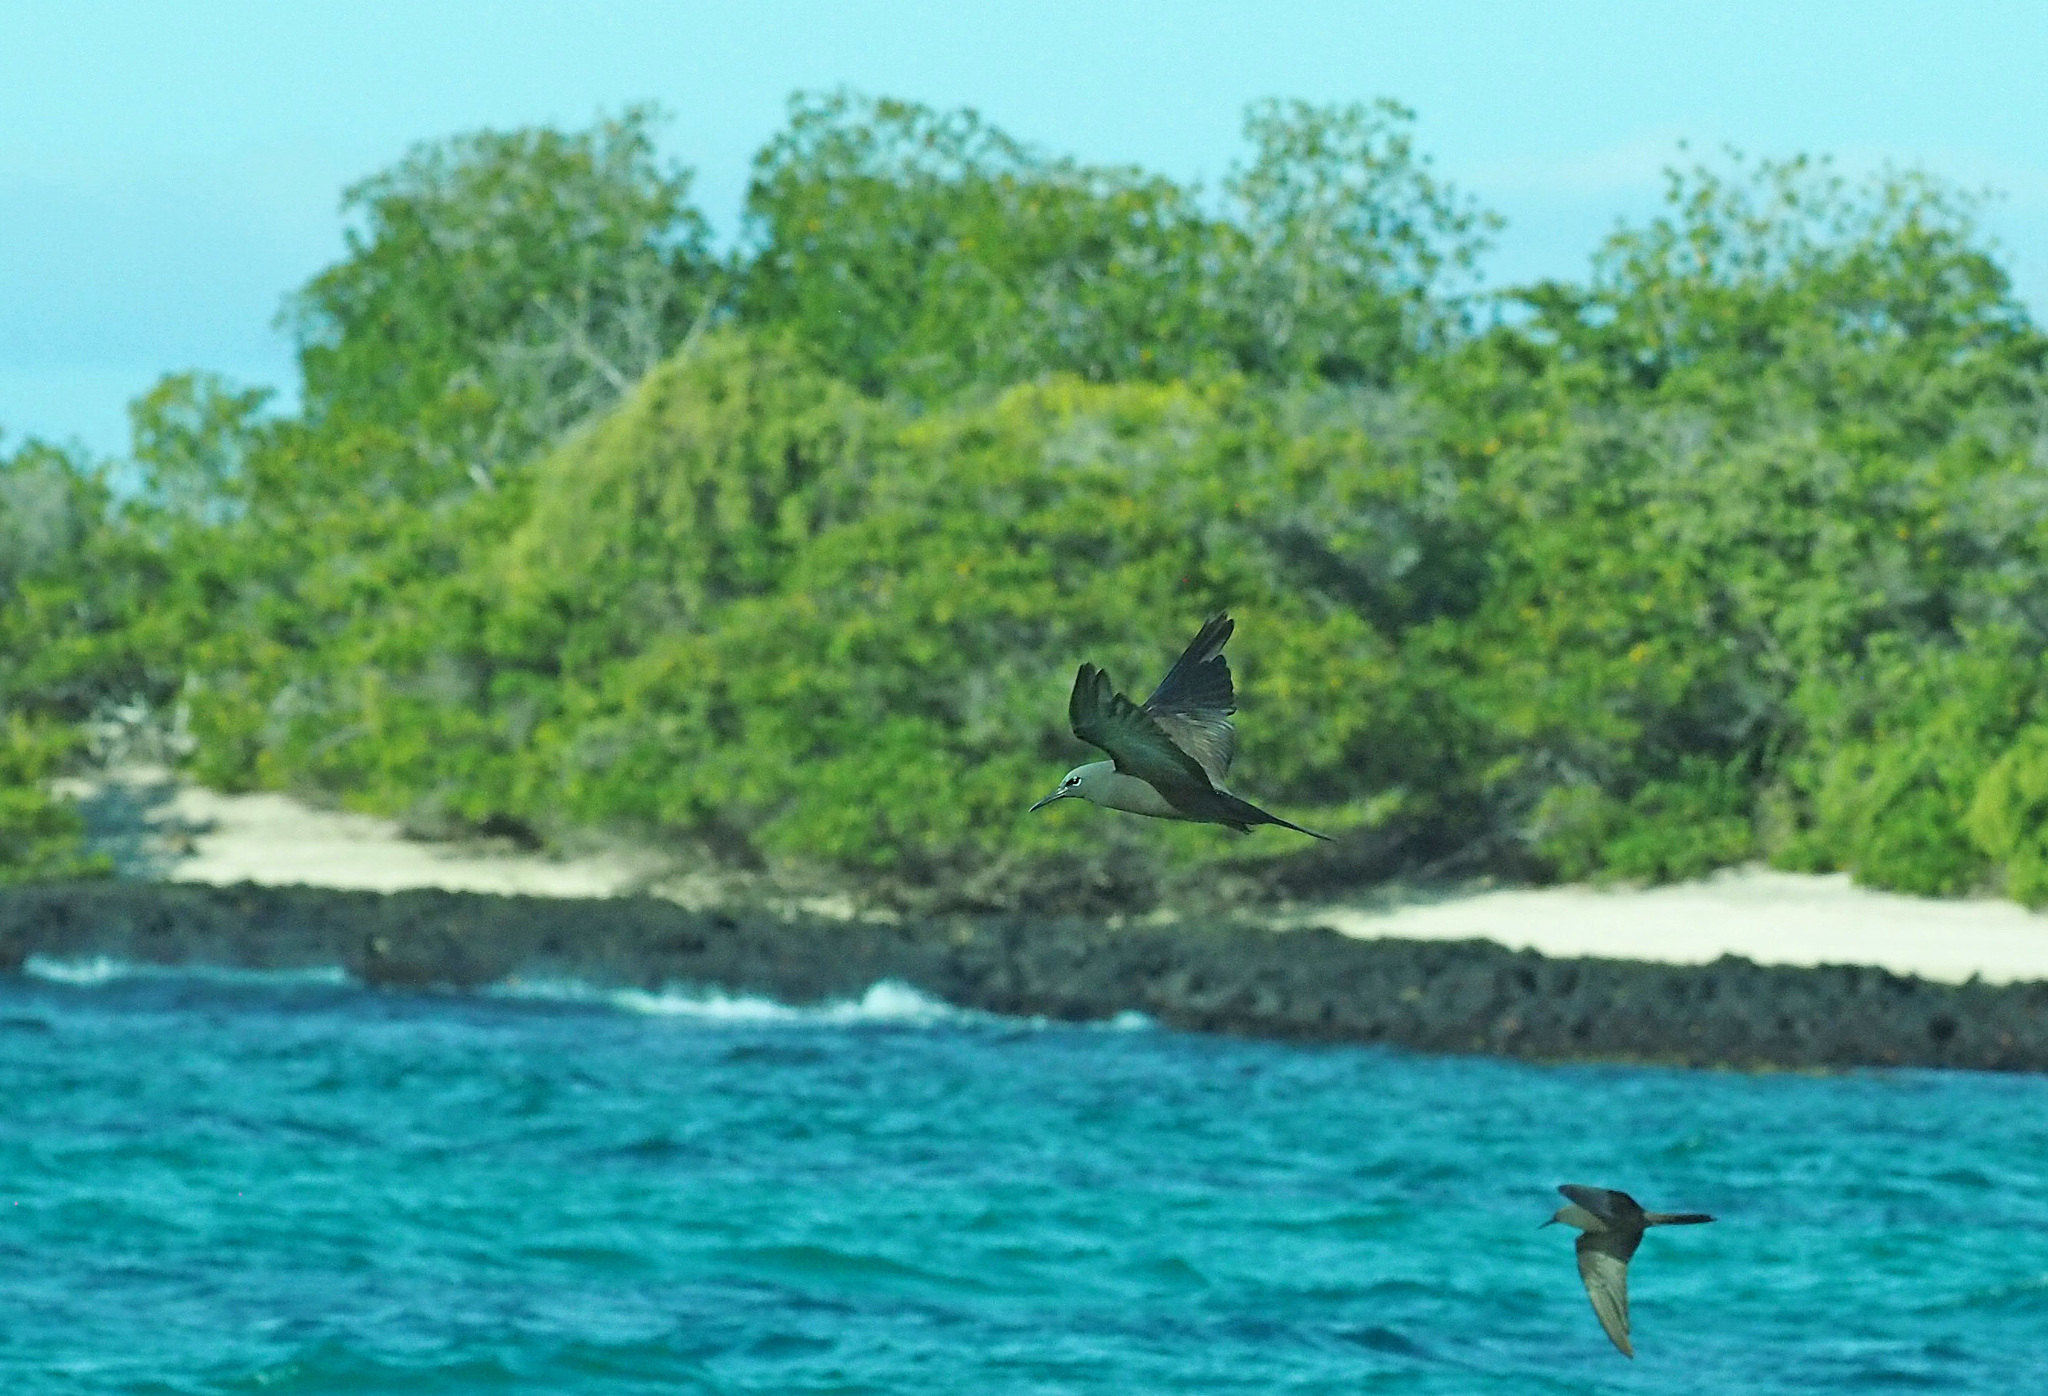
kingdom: Animalia
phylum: Chordata
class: Aves
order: Charadriiformes
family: Laridae
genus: Anous
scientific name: Anous stolidus
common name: Brown noddy
